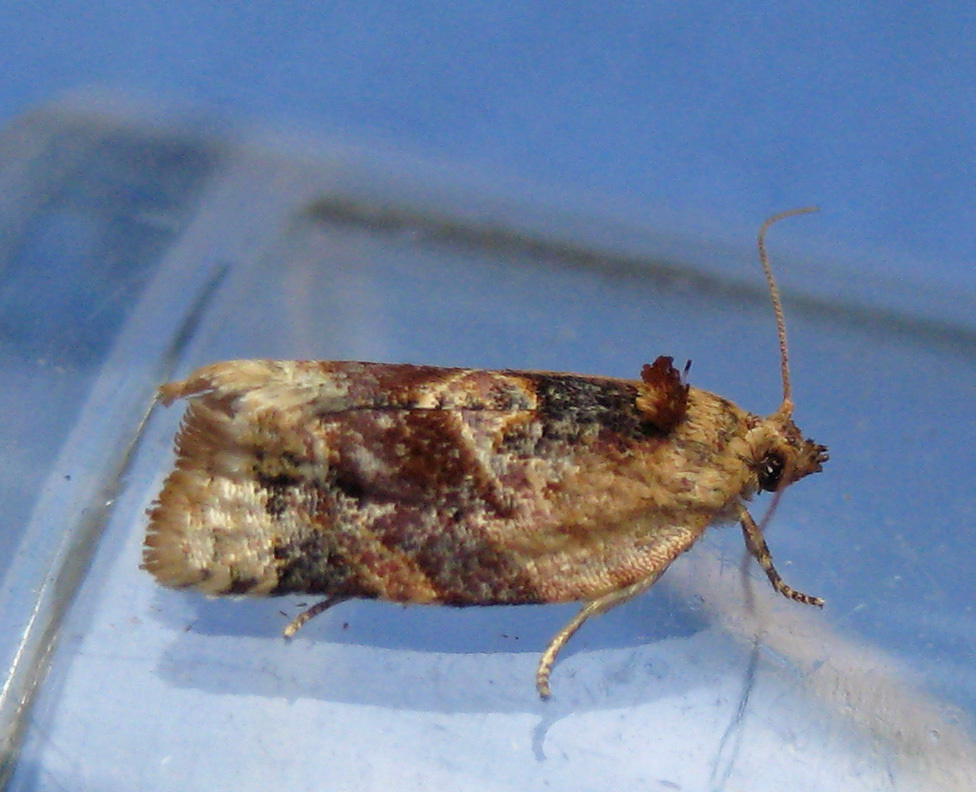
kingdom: Animalia
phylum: Arthropoda
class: Insecta
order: Lepidoptera
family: Tortricidae
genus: Argyrotaenia
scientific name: Argyrotaenia velutinana
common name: Red-banded leafroller moth
